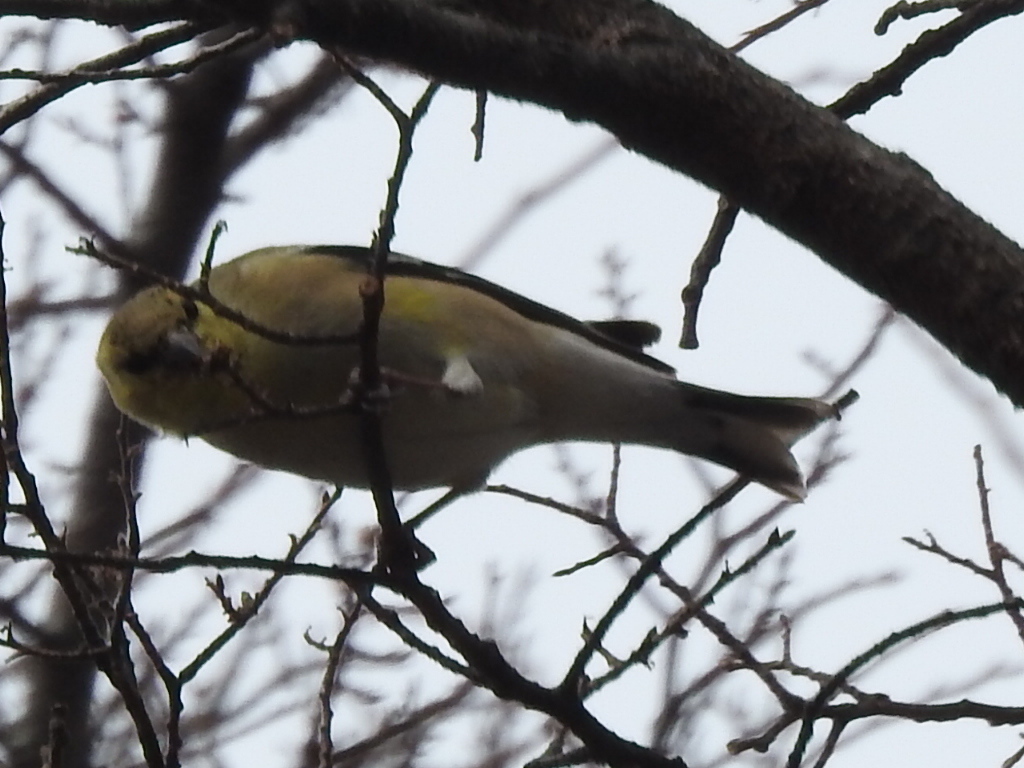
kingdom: Animalia
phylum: Chordata
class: Aves
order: Passeriformes
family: Fringillidae
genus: Spinus
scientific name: Spinus tristis
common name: American goldfinch
